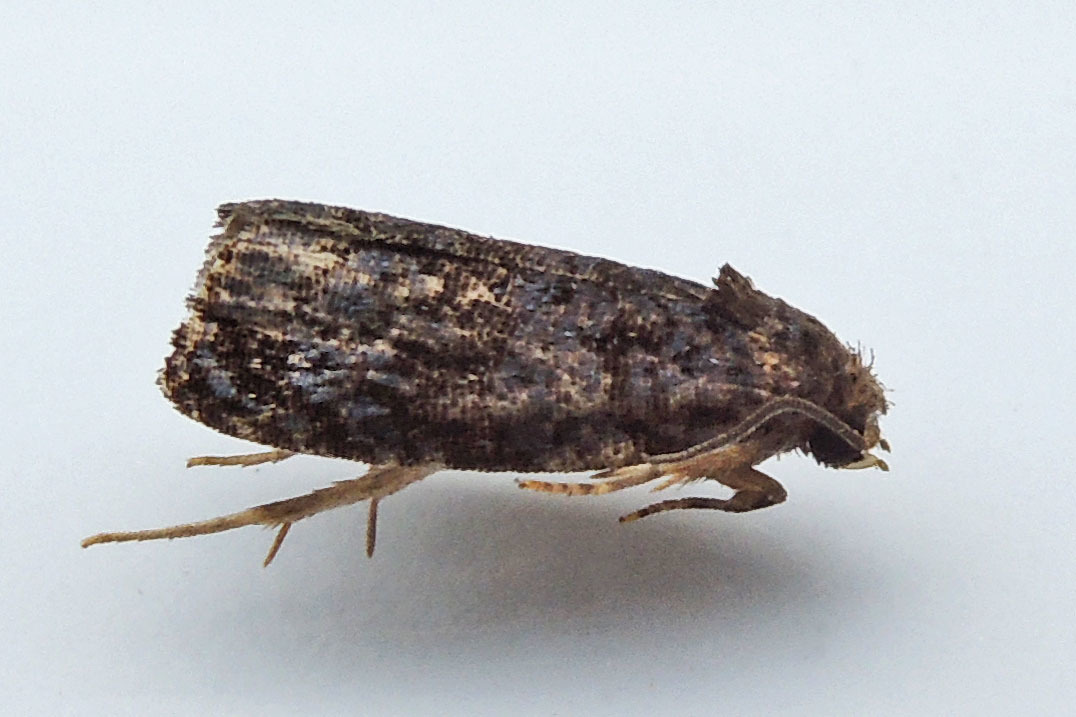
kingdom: Animalia
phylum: Arthropoda
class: Insecta
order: Lepidoptera
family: Tortricidae
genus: Pristerognatha
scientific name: Pristerognatha agilana
